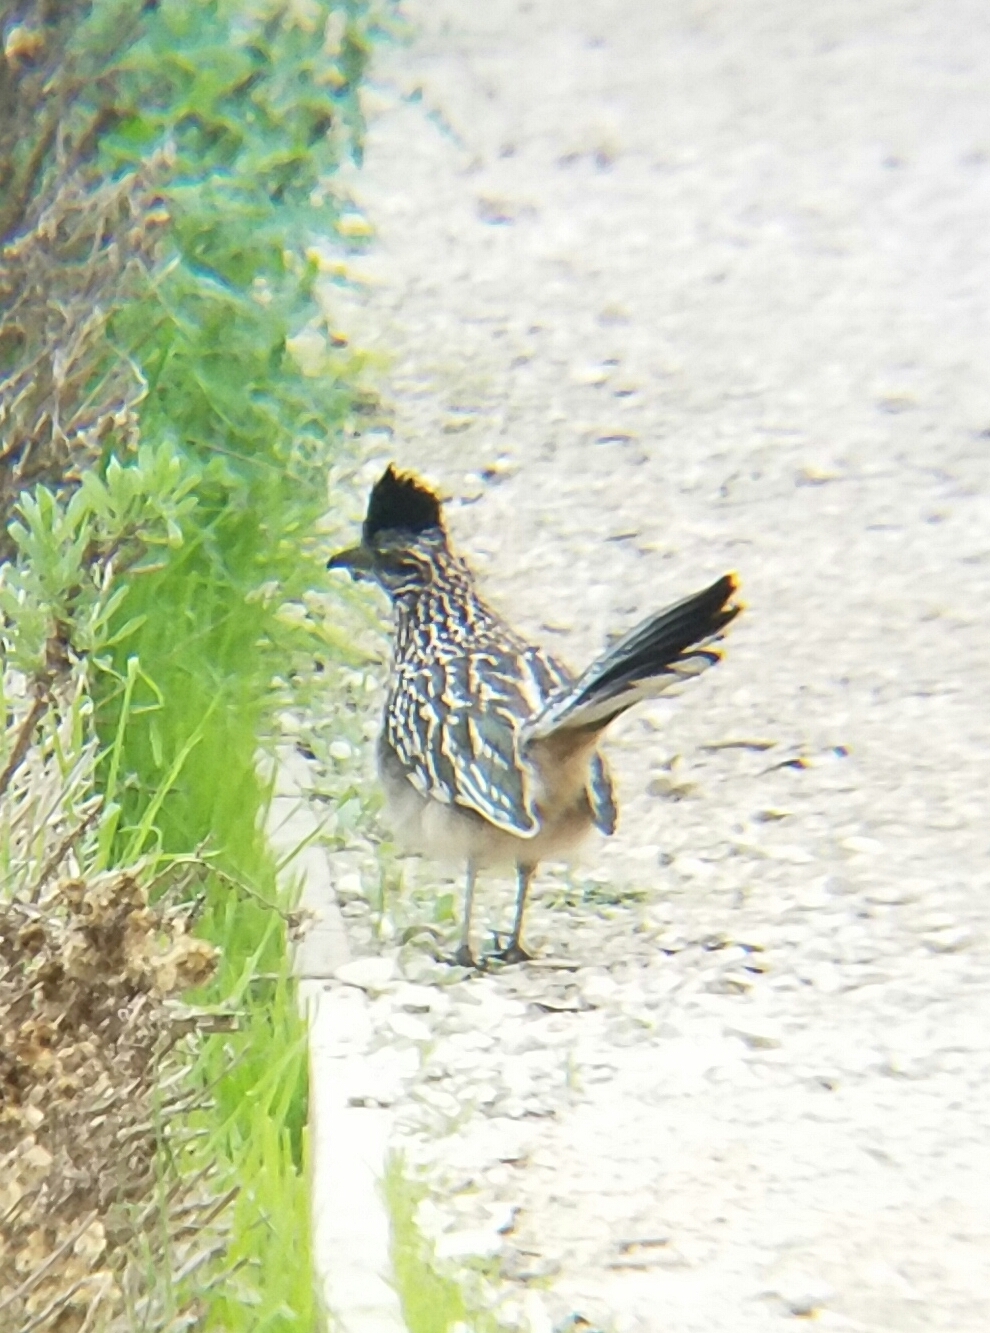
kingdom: Animalia
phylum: Chordata
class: Aves
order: Cuculiformes
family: Cuculidae
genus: Geococcyx
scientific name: Geococcyx californianus
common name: Greater roadrunner
